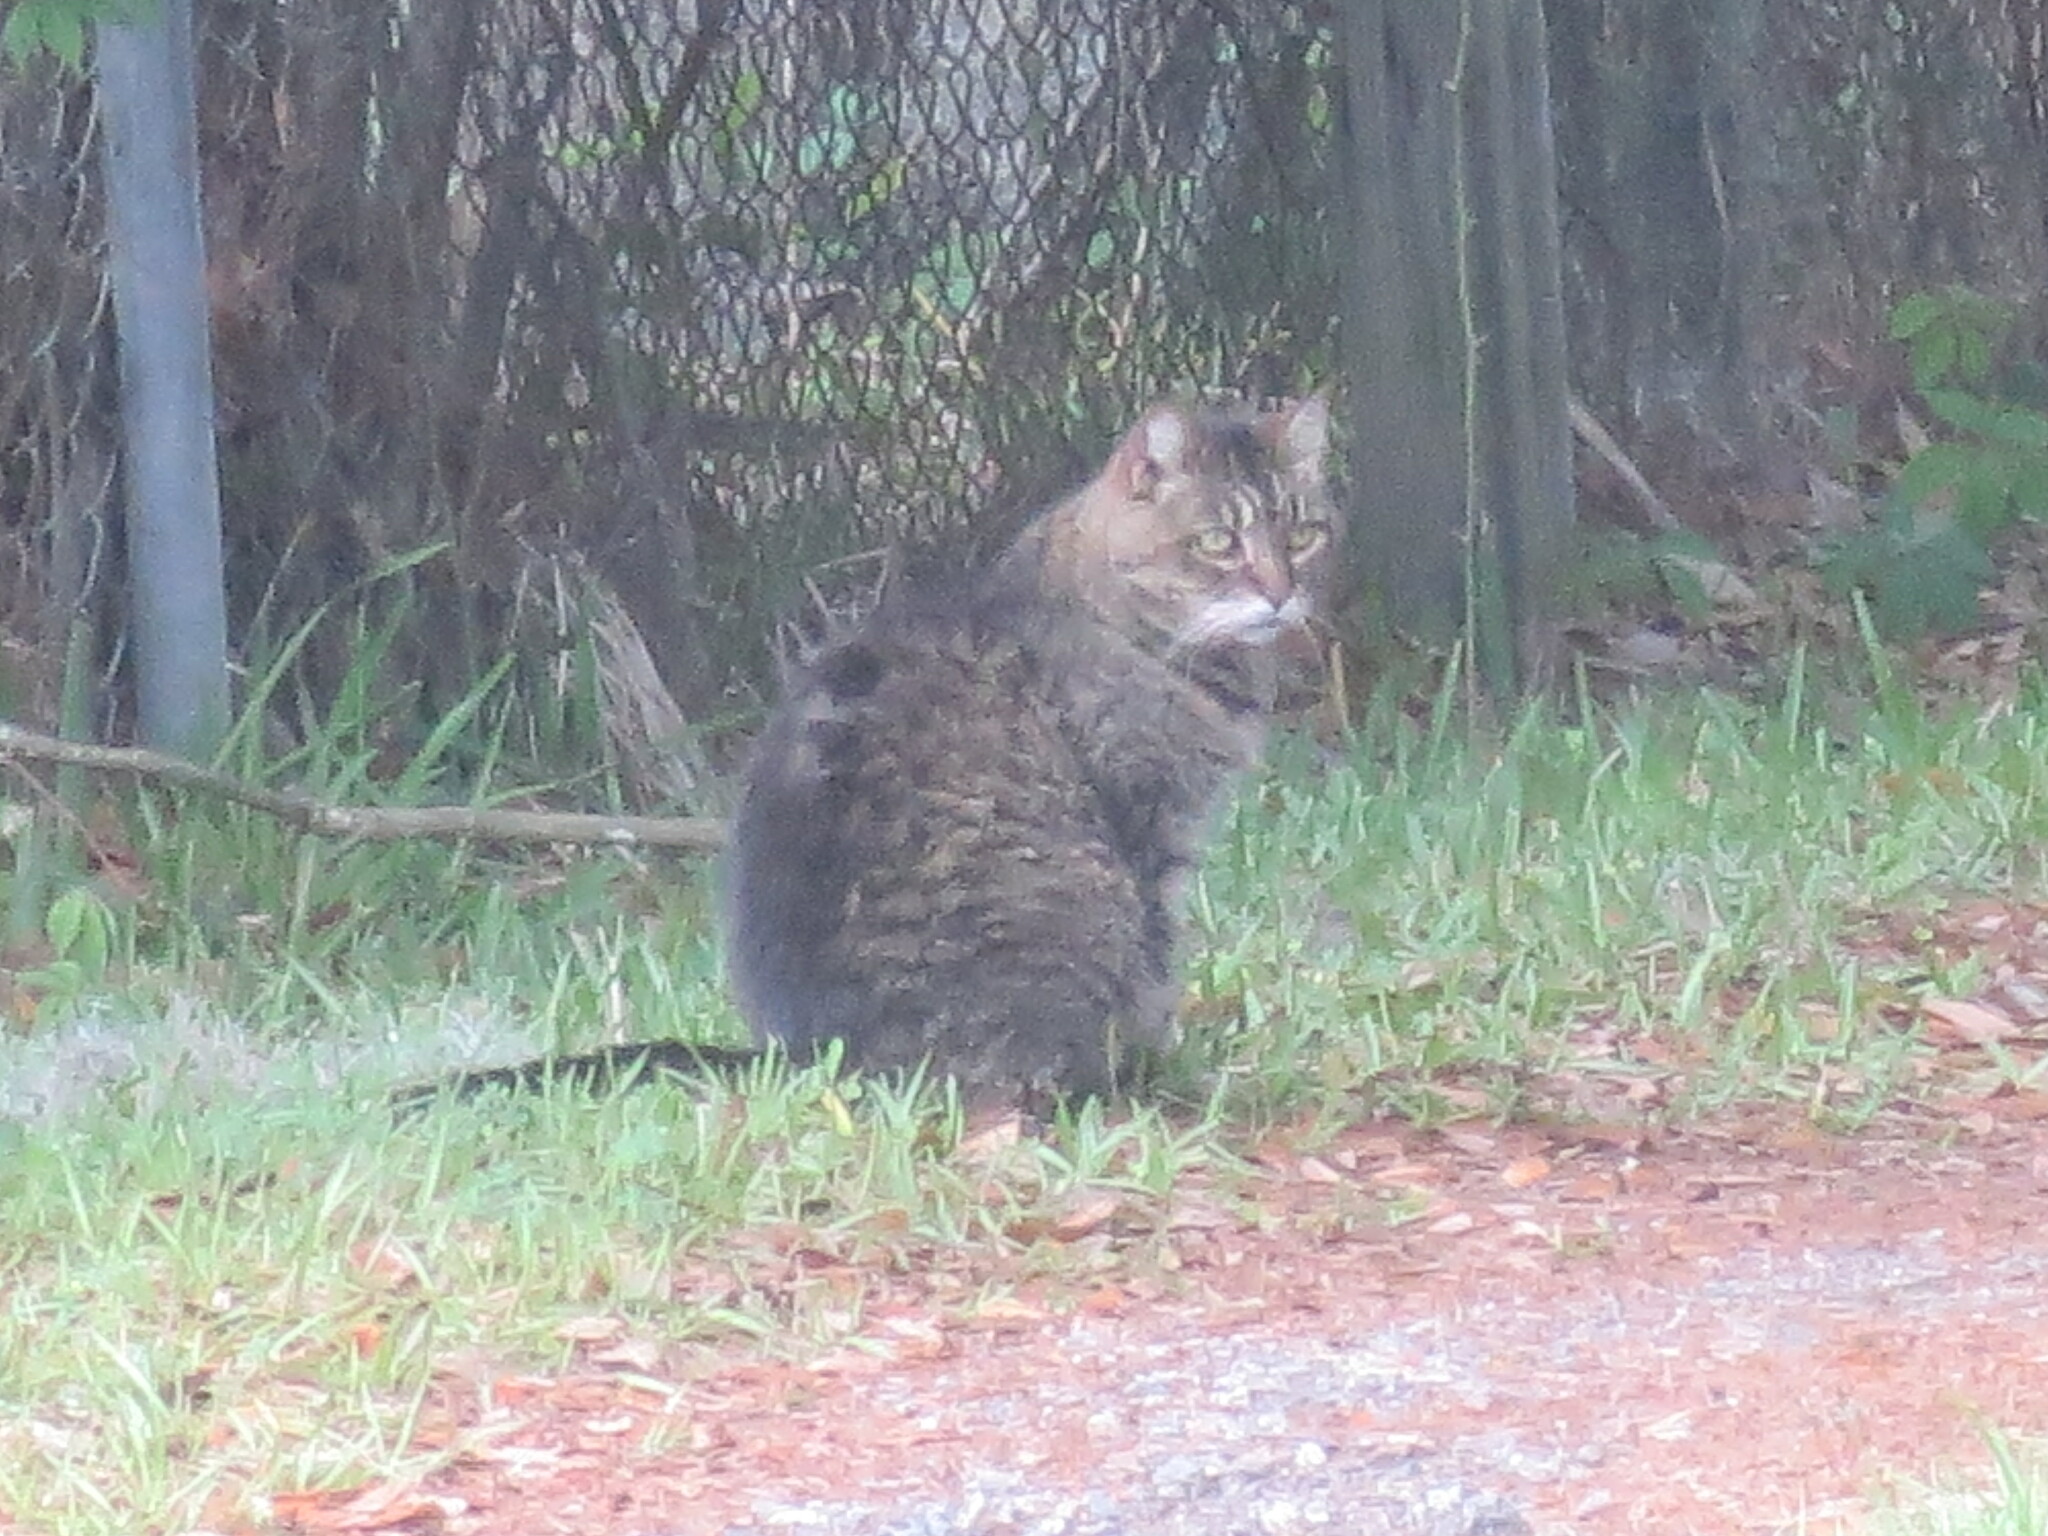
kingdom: Animalia
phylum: Chordata
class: Mammalia
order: Carnivora
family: Felidae
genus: Felis
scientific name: Felis catus
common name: Domestic cat
